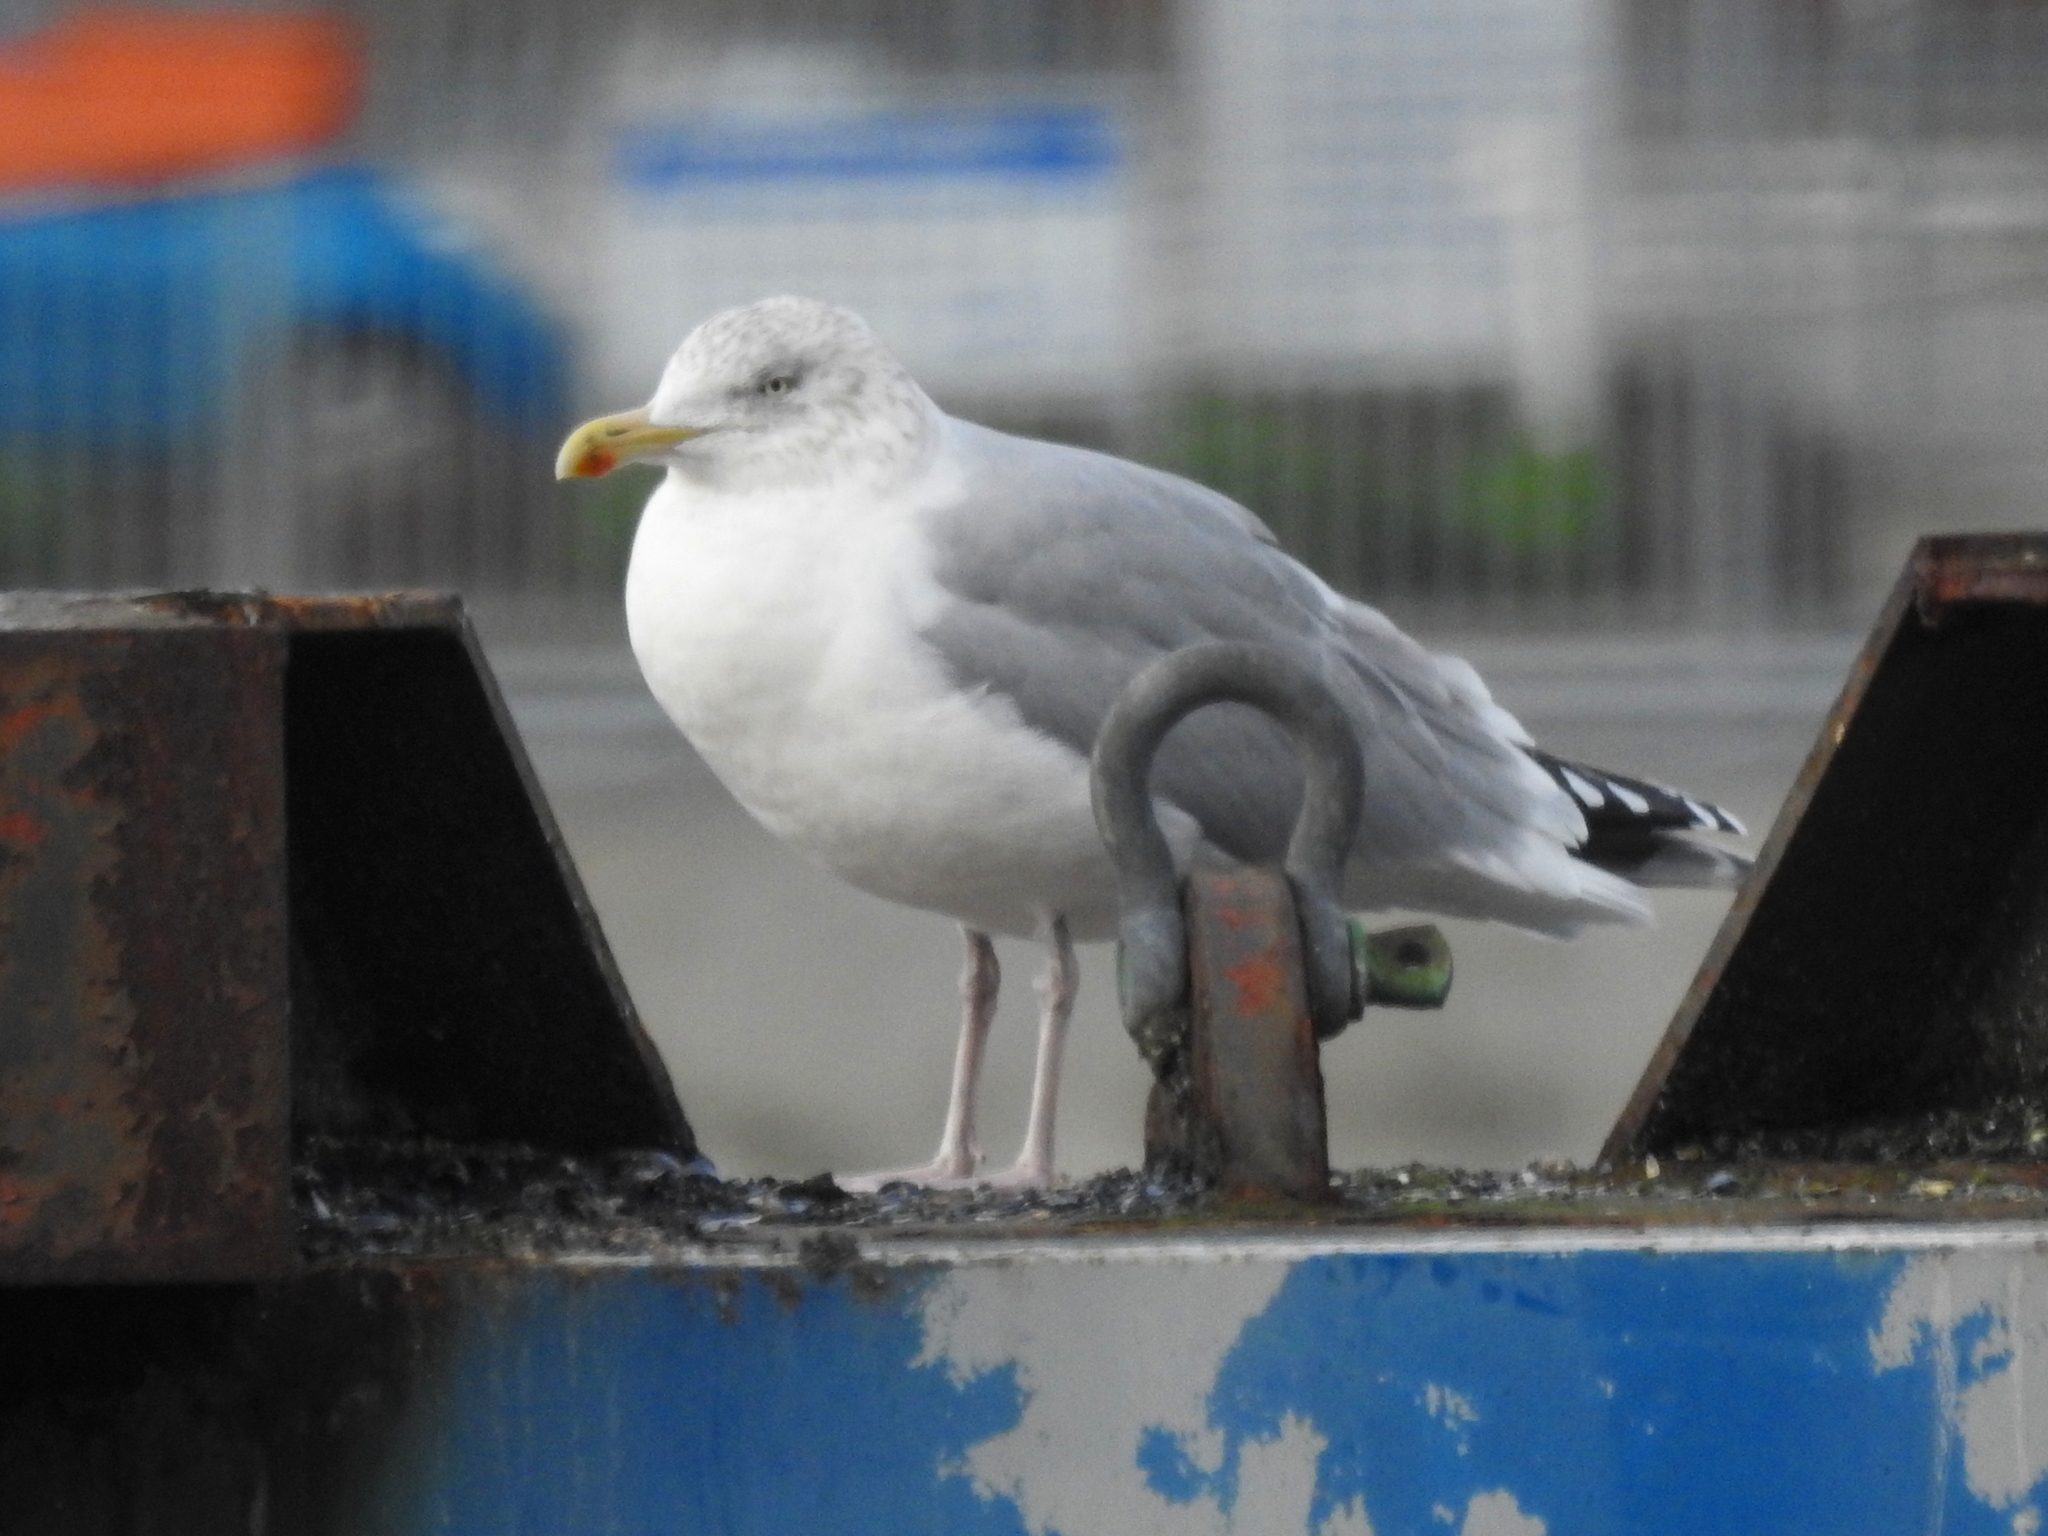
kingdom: Animalia
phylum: Chordata
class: Aves
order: Charadriiformes
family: Laridae
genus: Larus
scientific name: Larus argentatus
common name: Herring gull
